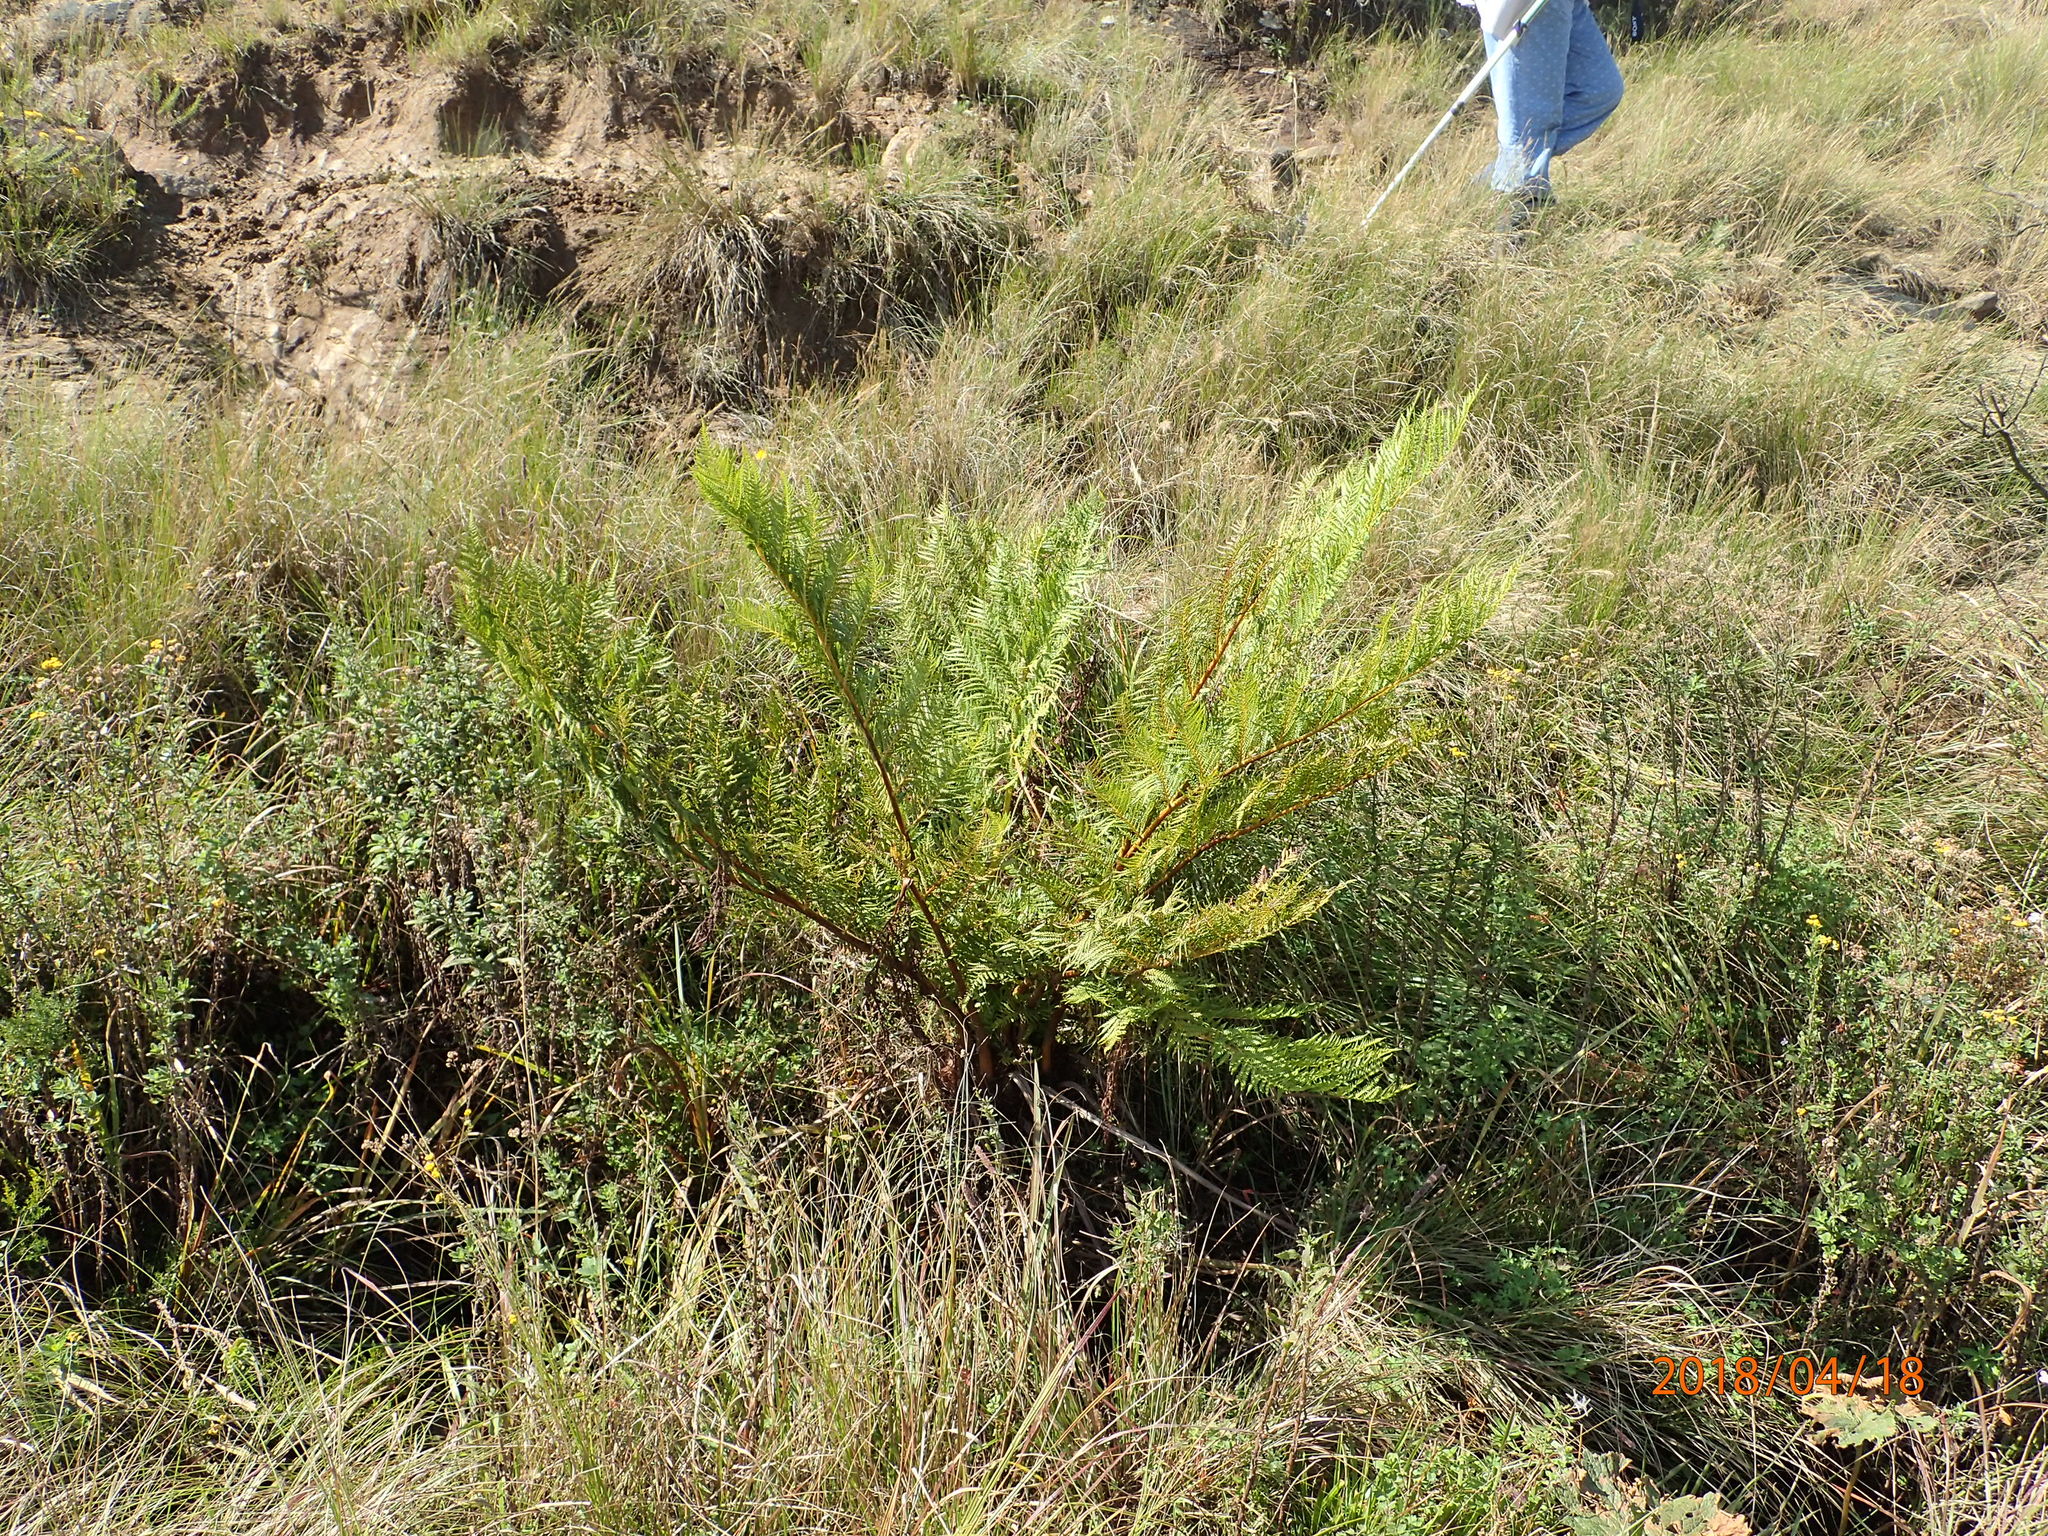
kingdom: Plantae
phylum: Tracheophyta
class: Polypodiopsida
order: Cyatheales
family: Cyatheaceae
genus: Alsophila
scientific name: Alsophila dregei
